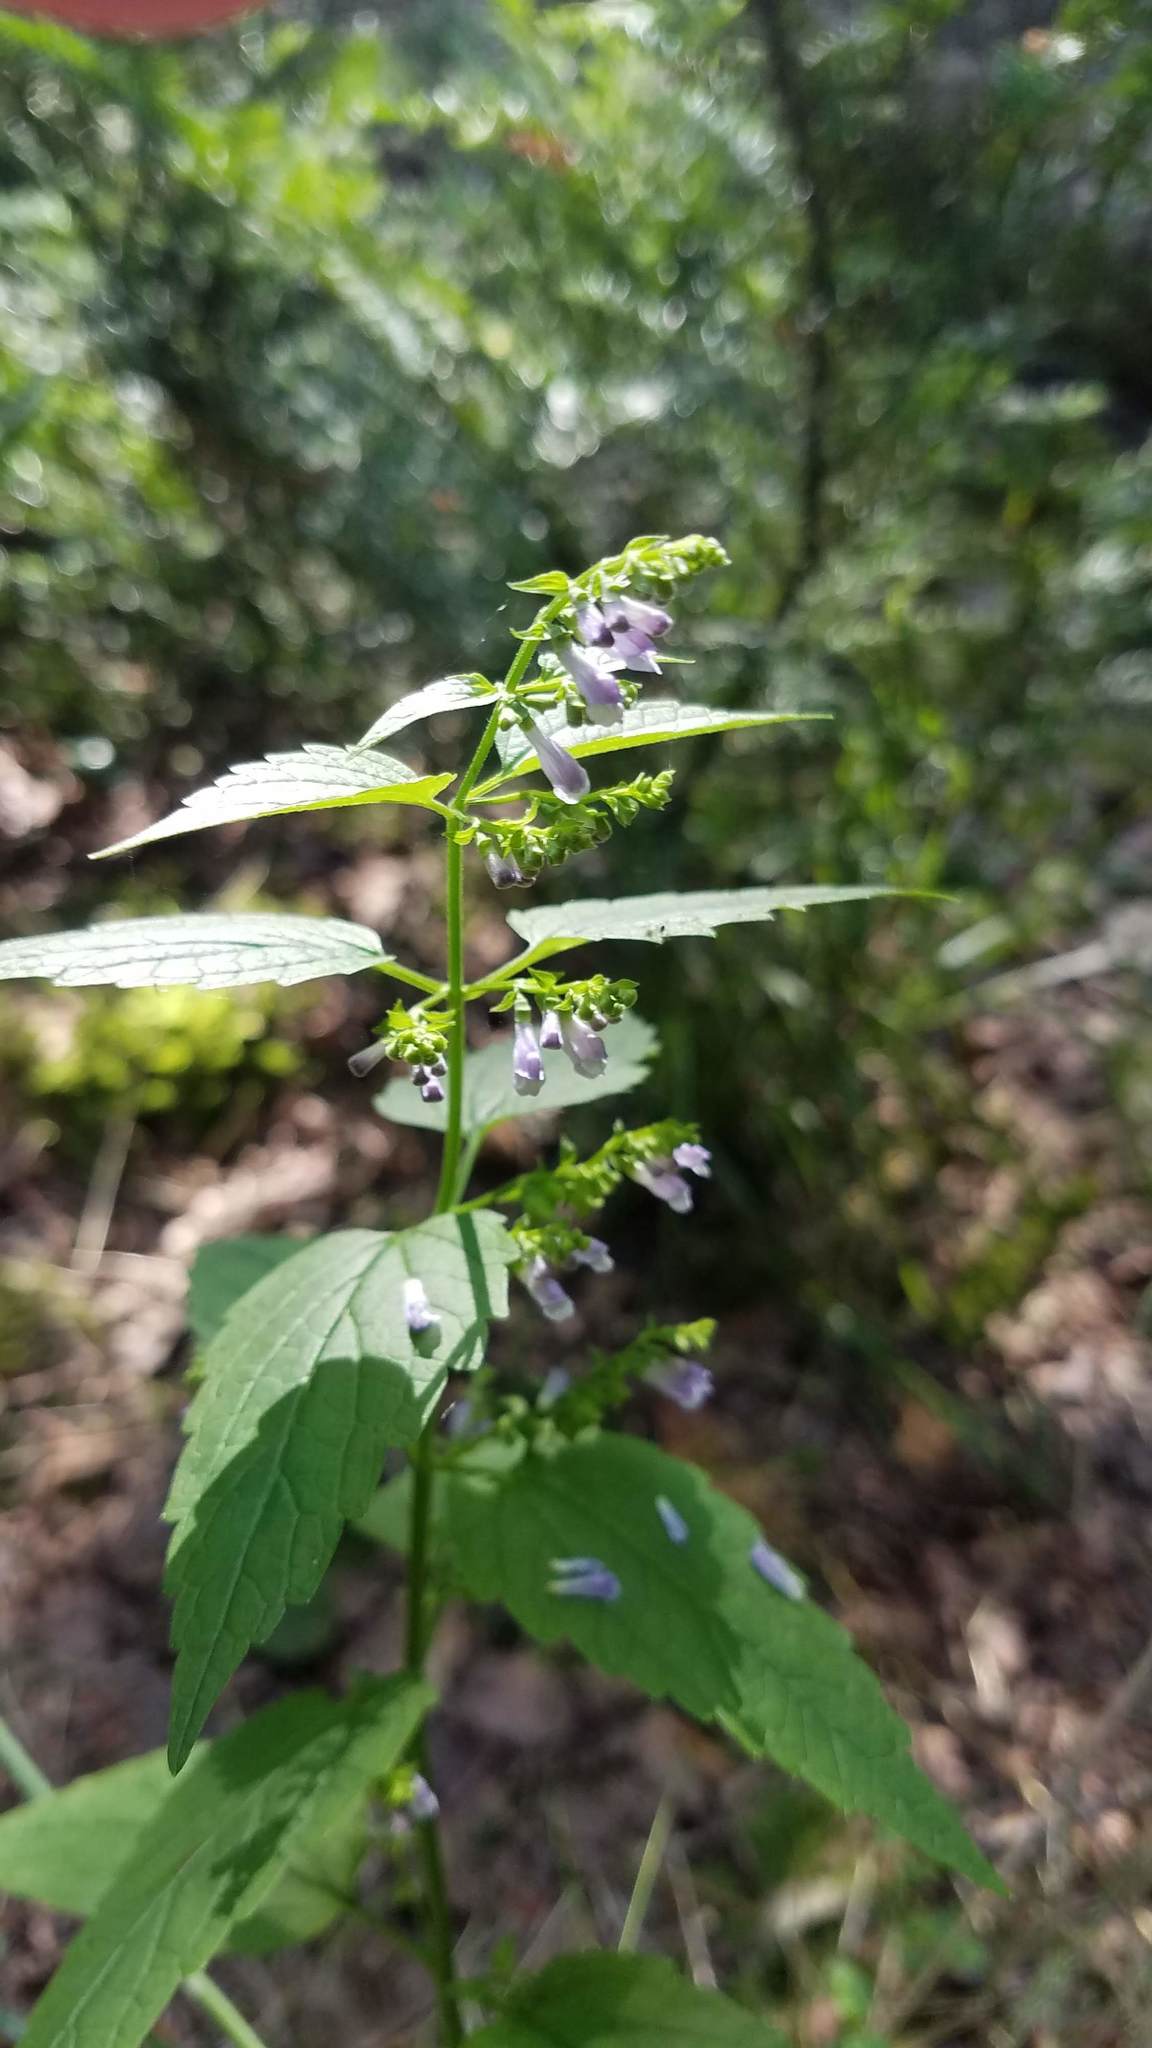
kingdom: Plantae
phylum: Tracheophyta
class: Magnoliopsida
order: Lamiales
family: Lamiaceae
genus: Scutellaria
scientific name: Scutellaria lateriflora
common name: Blue skullcap
